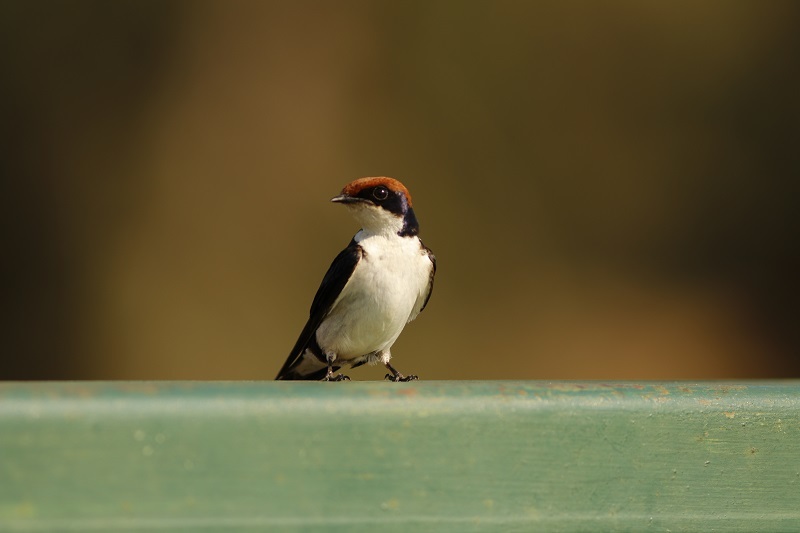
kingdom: Animalia
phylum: Chordata
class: Aves
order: Passeriformes
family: Hirundinidae
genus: Hirundo
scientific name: Hirundo smithii
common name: Wire-tailed swallow
